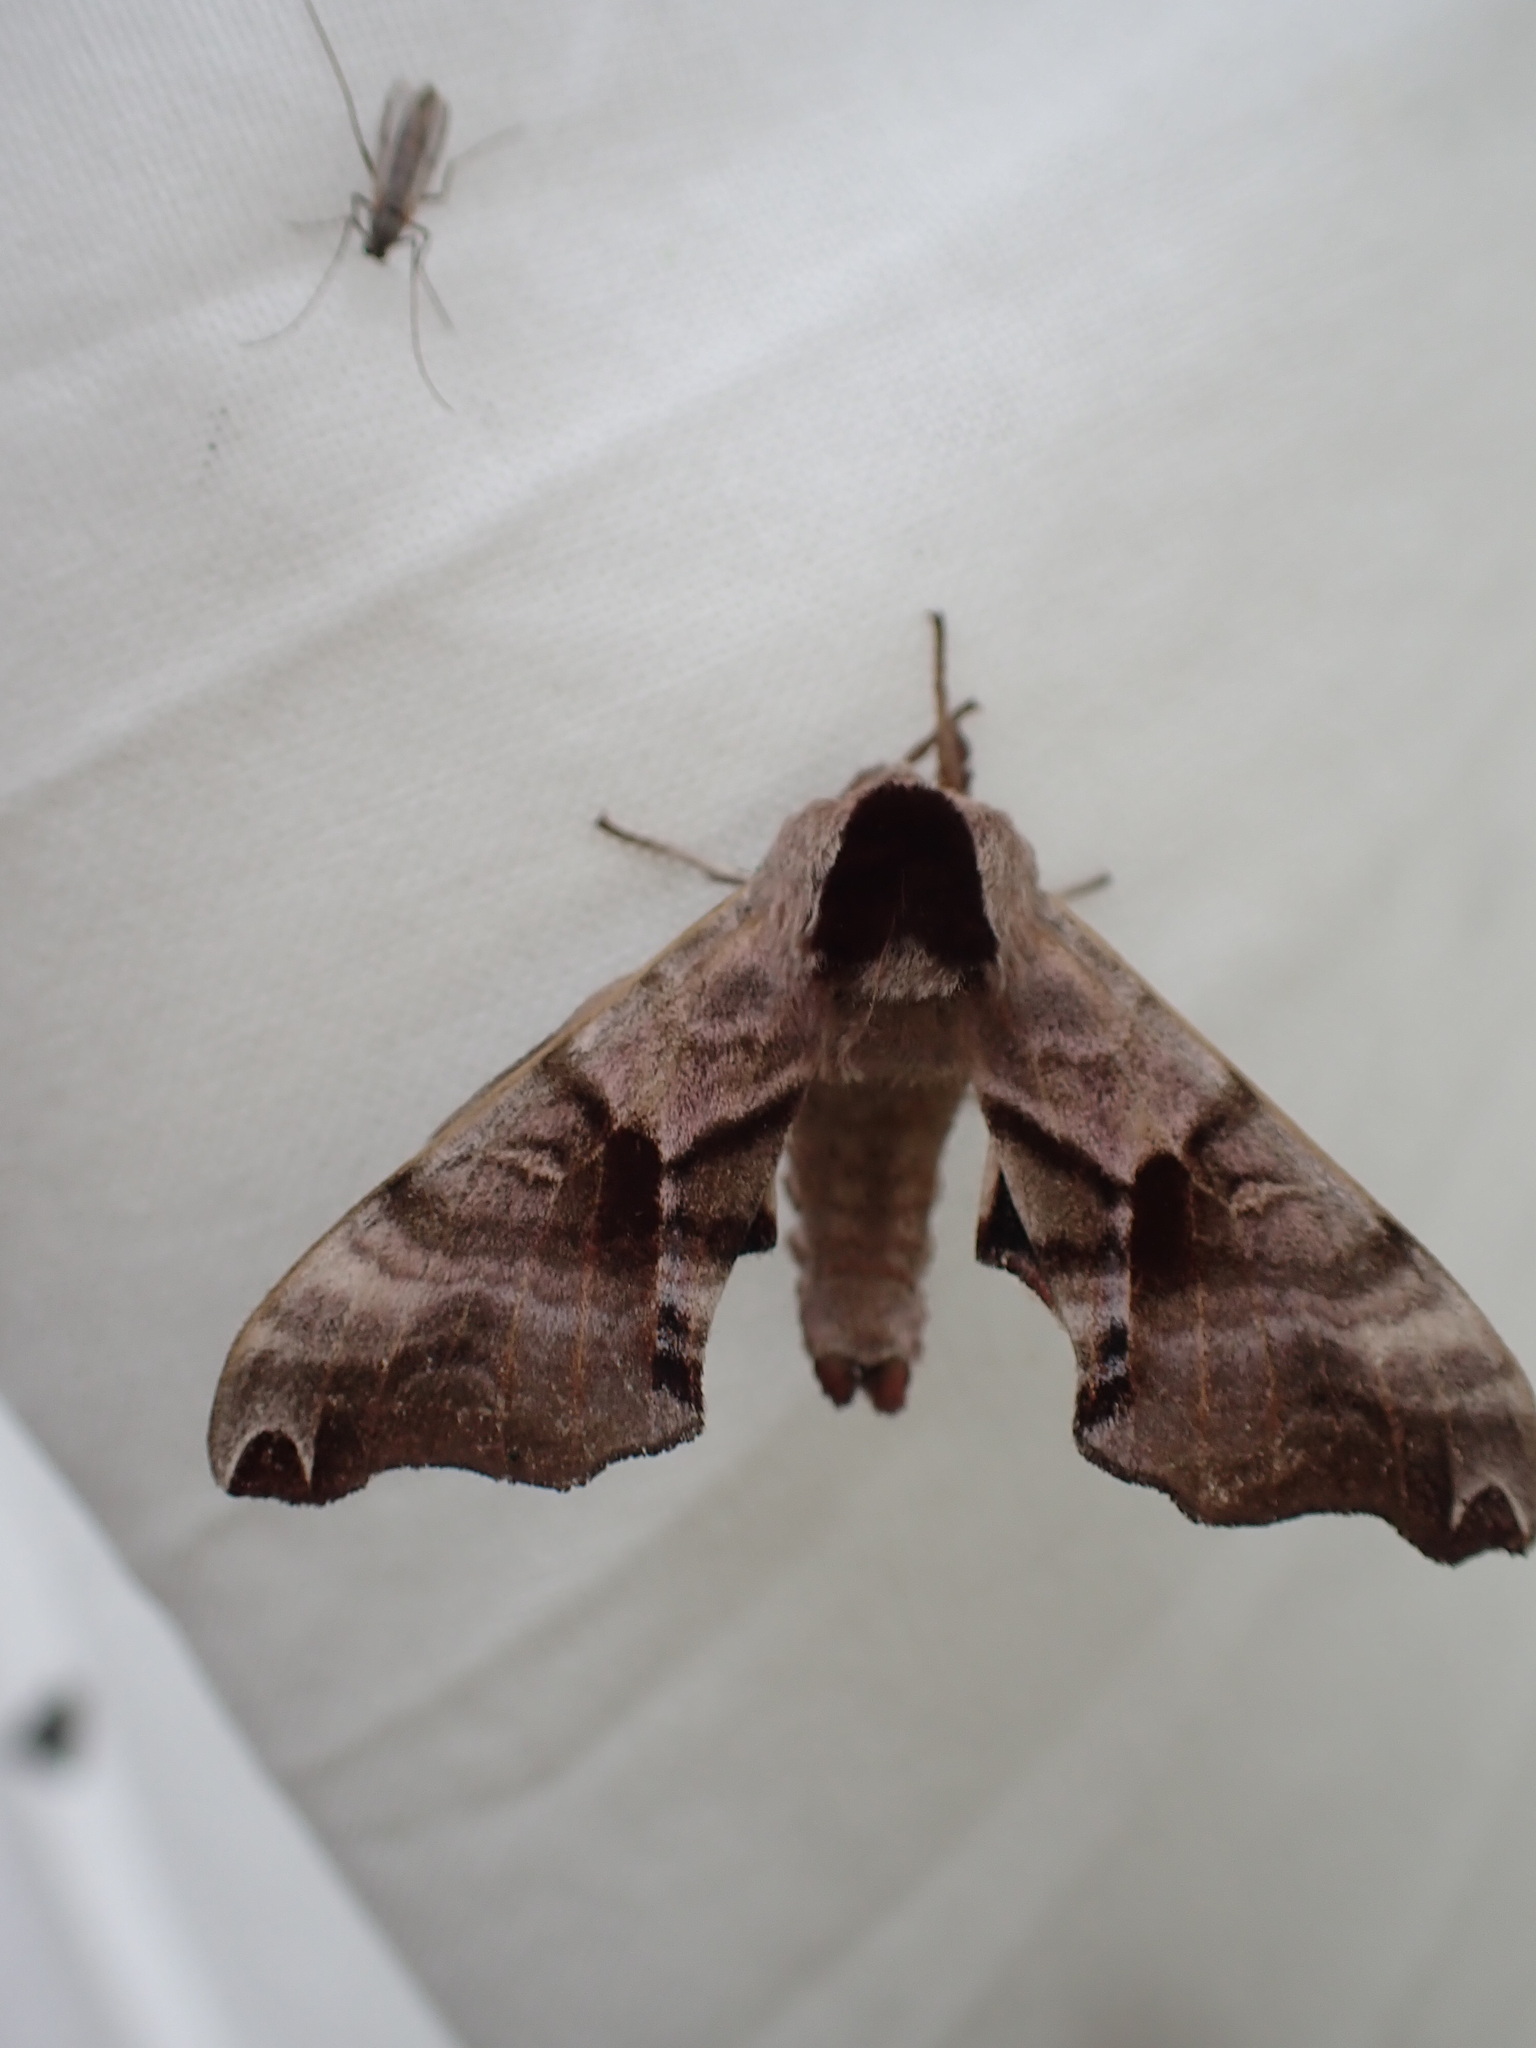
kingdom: Animalia
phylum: Arthropoda
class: Insecta
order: Lepidoptera
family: Sphingidae
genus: Smerinthus
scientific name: Smerinthus jamaicensis
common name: Twin spotted sphinx
